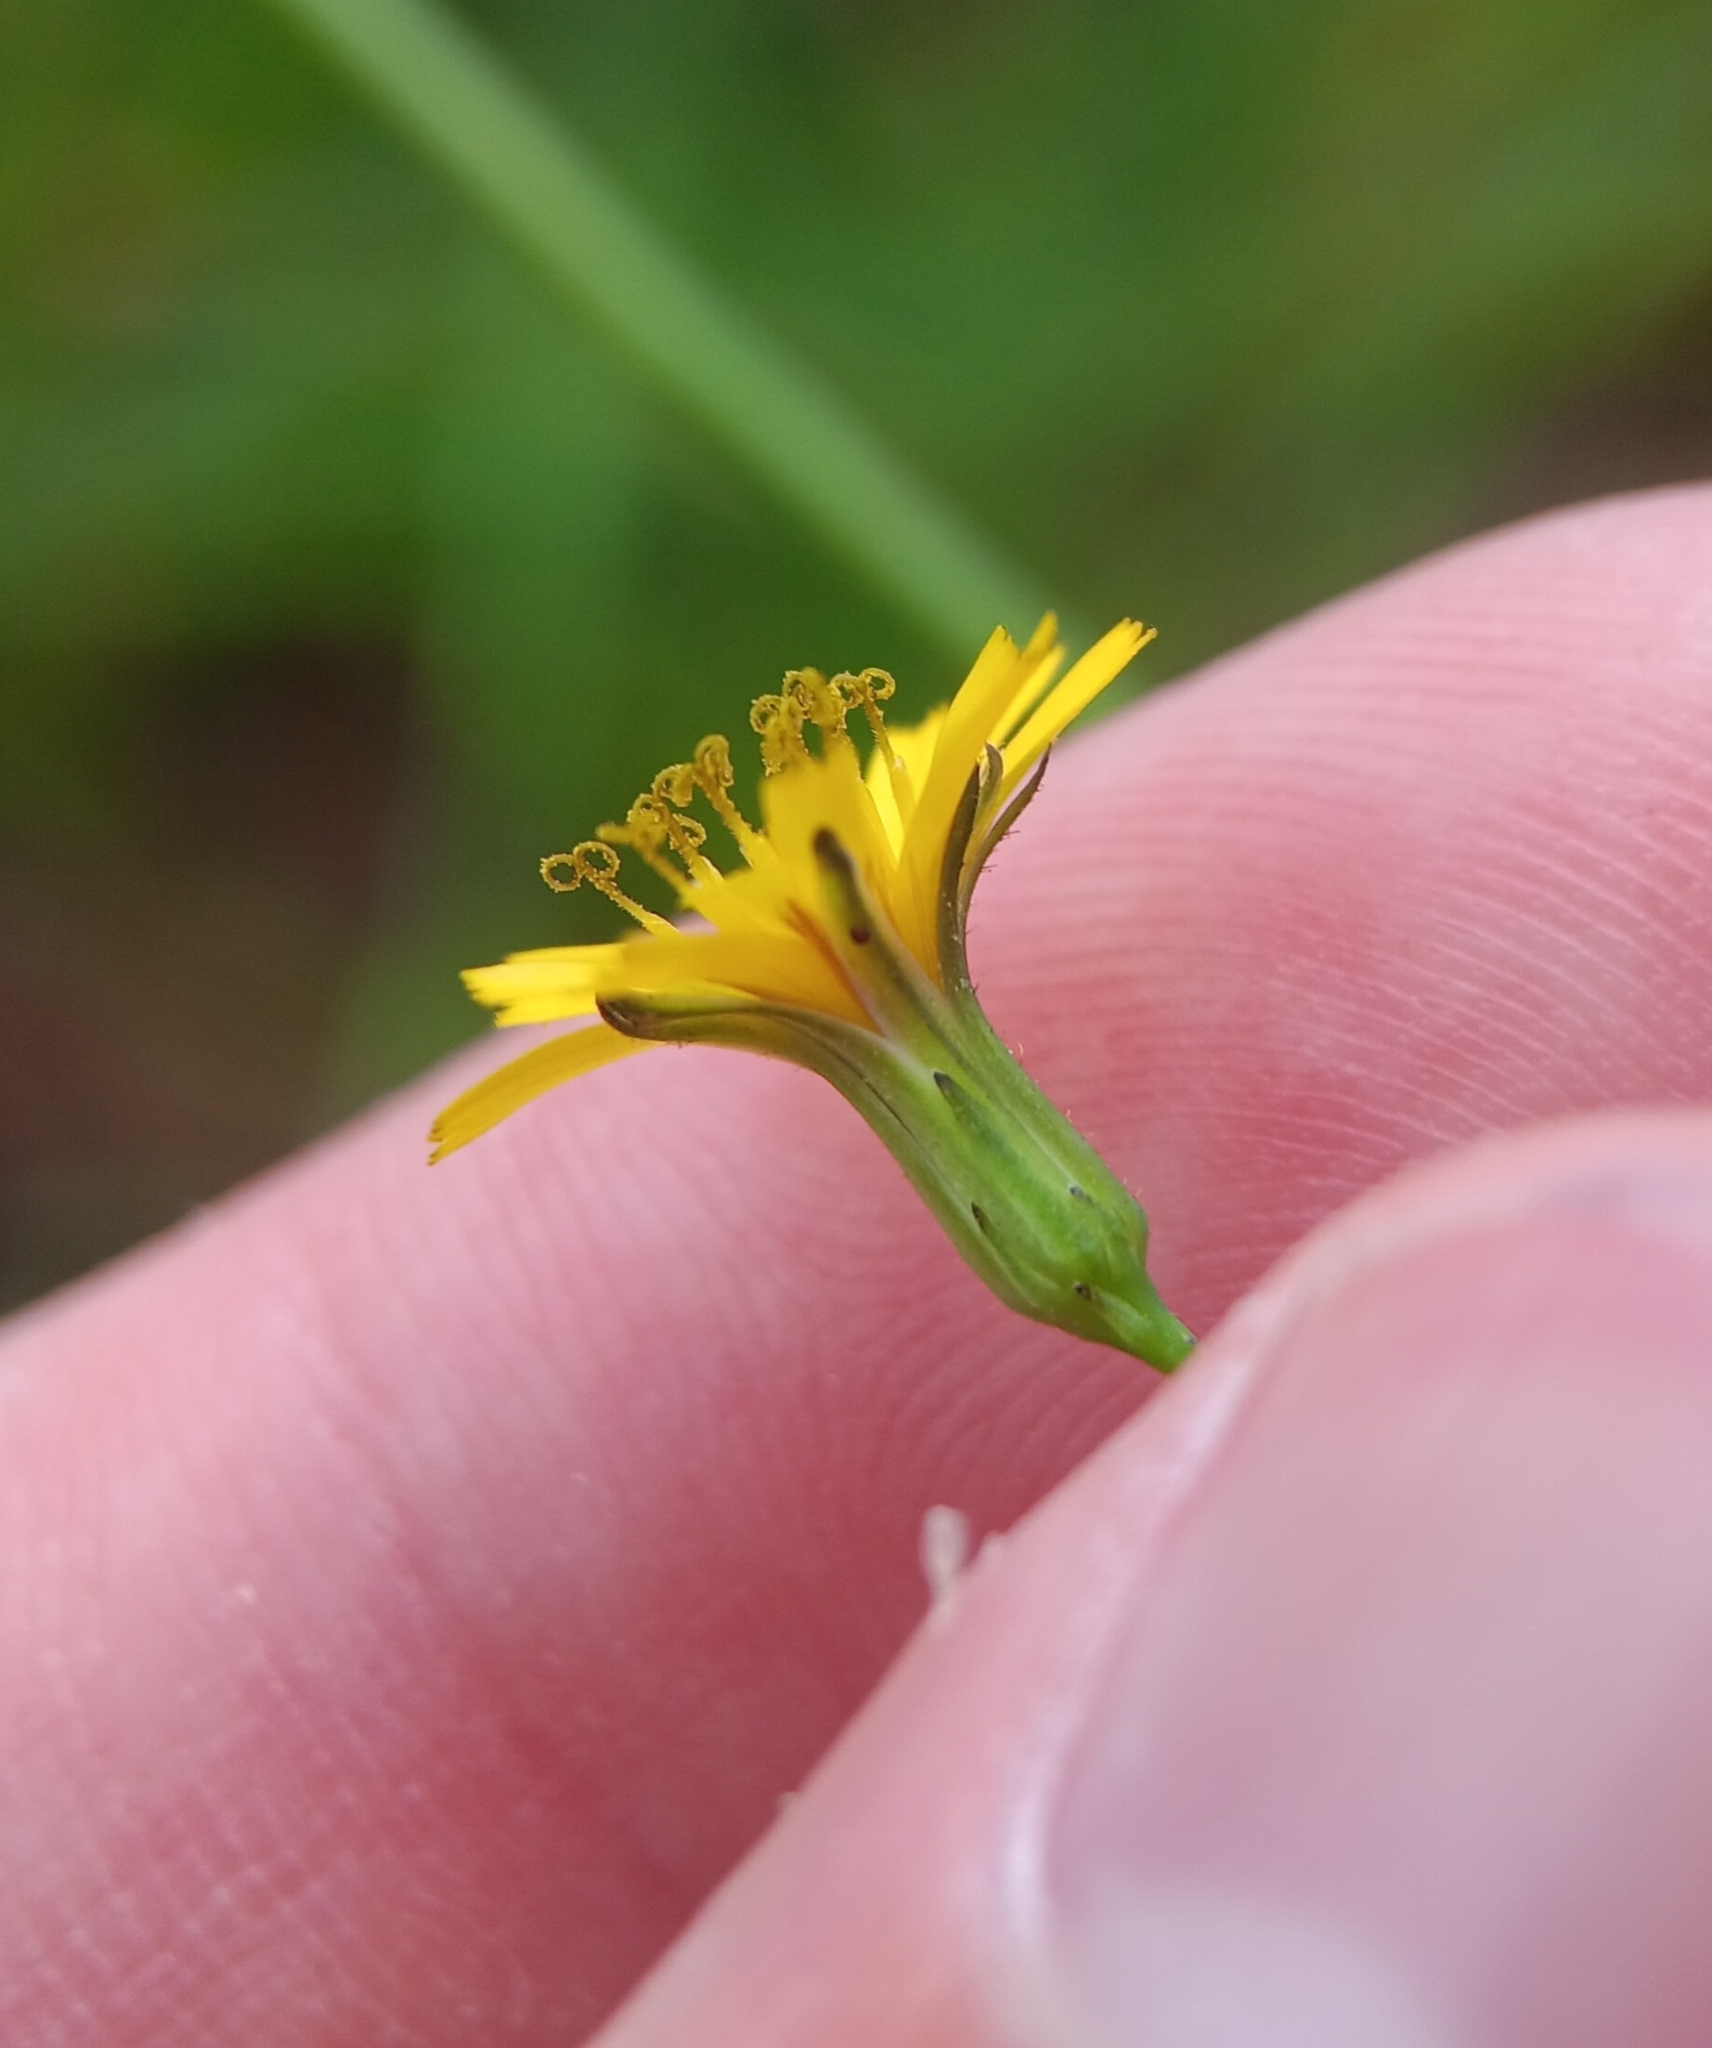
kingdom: Plantae
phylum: Tracheophyta
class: Magnoliopsida
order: Asterales
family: Asteraceae
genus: Hieracium
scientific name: Hieracium paniculatum
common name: Allegheny hawkweed
